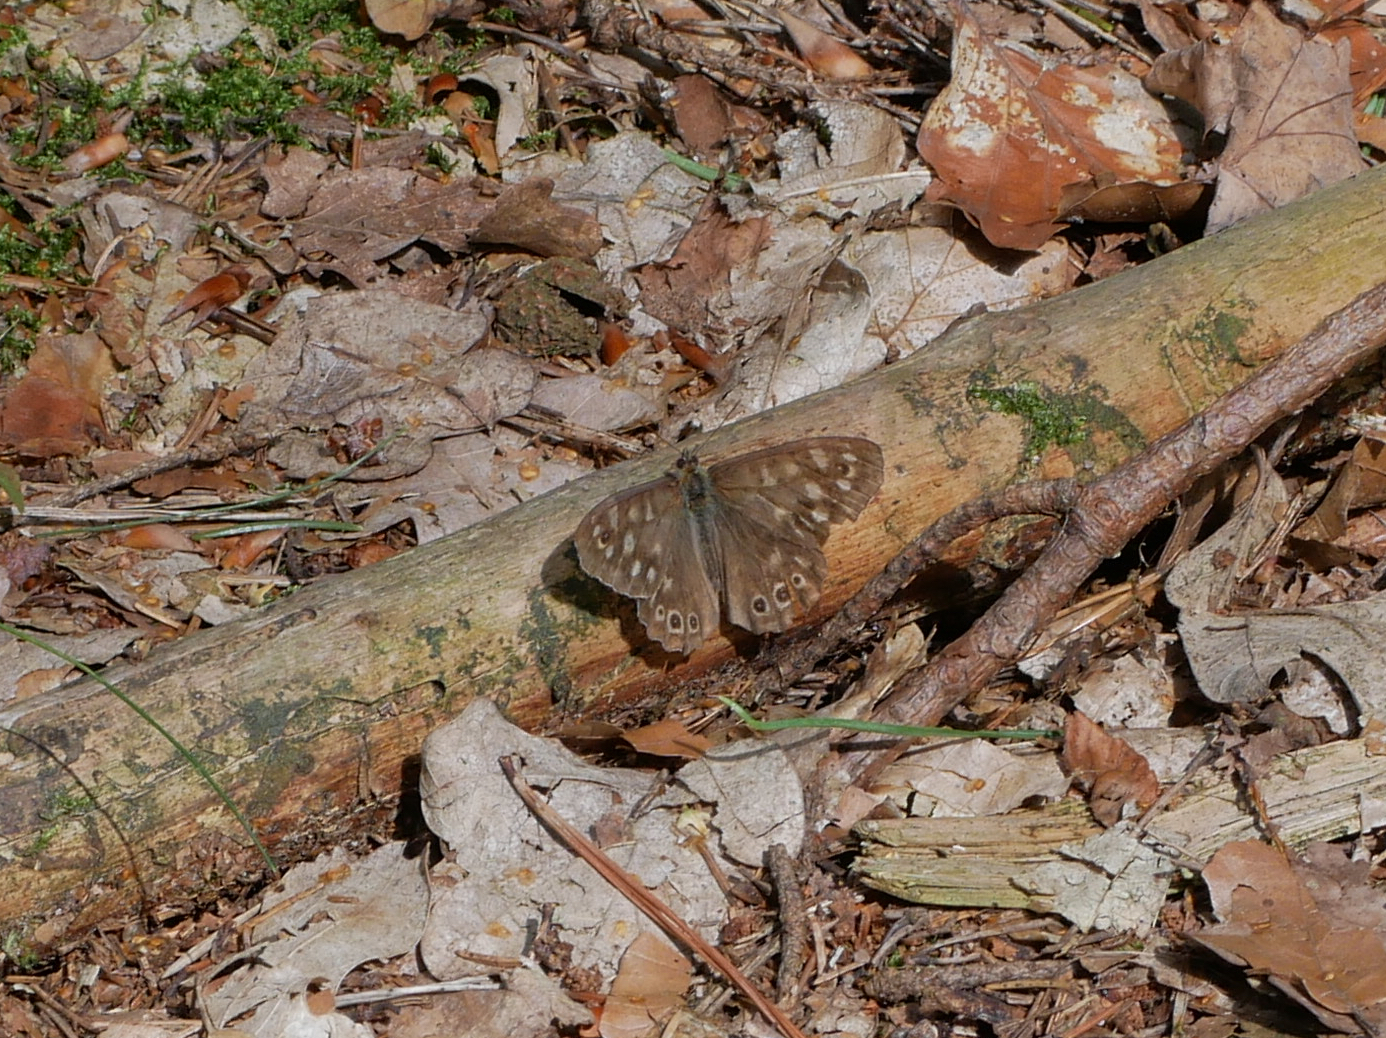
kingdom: Animalia
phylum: Arthropoda
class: Insecta
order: Lepidoptera
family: Nymphalidae
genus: Pararge
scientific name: Pararge aegeria
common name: Speckled wood
